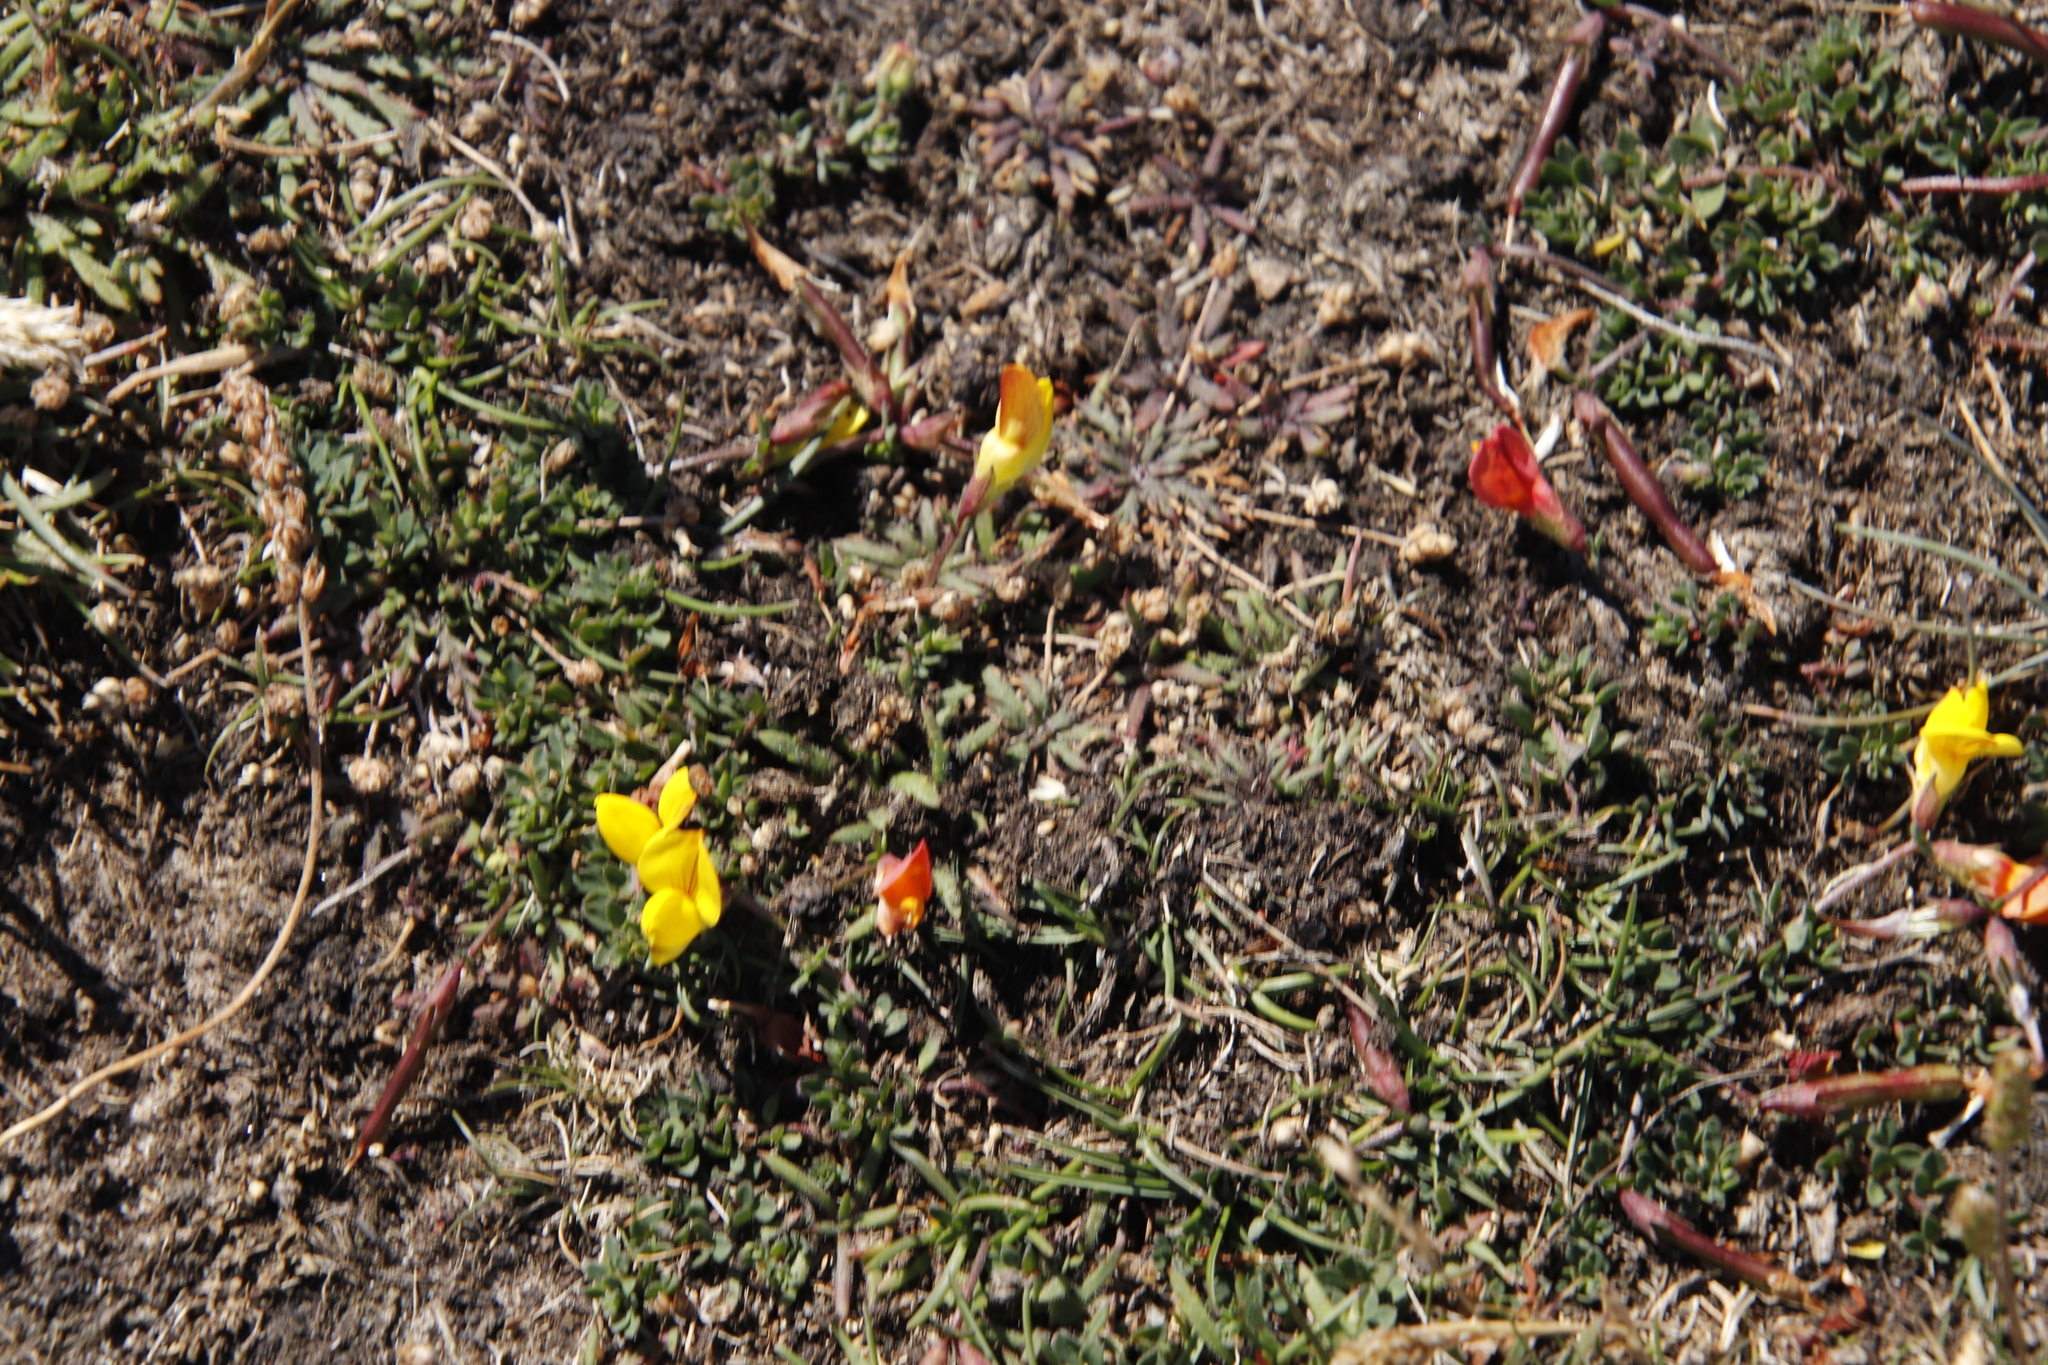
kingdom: Plantae
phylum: Tracheophyta
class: Magnoliopsida
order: Fabales
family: Fabaceae
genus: Lotus
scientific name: Lotus corniculatus
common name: Common bird's-foot-trefoil
